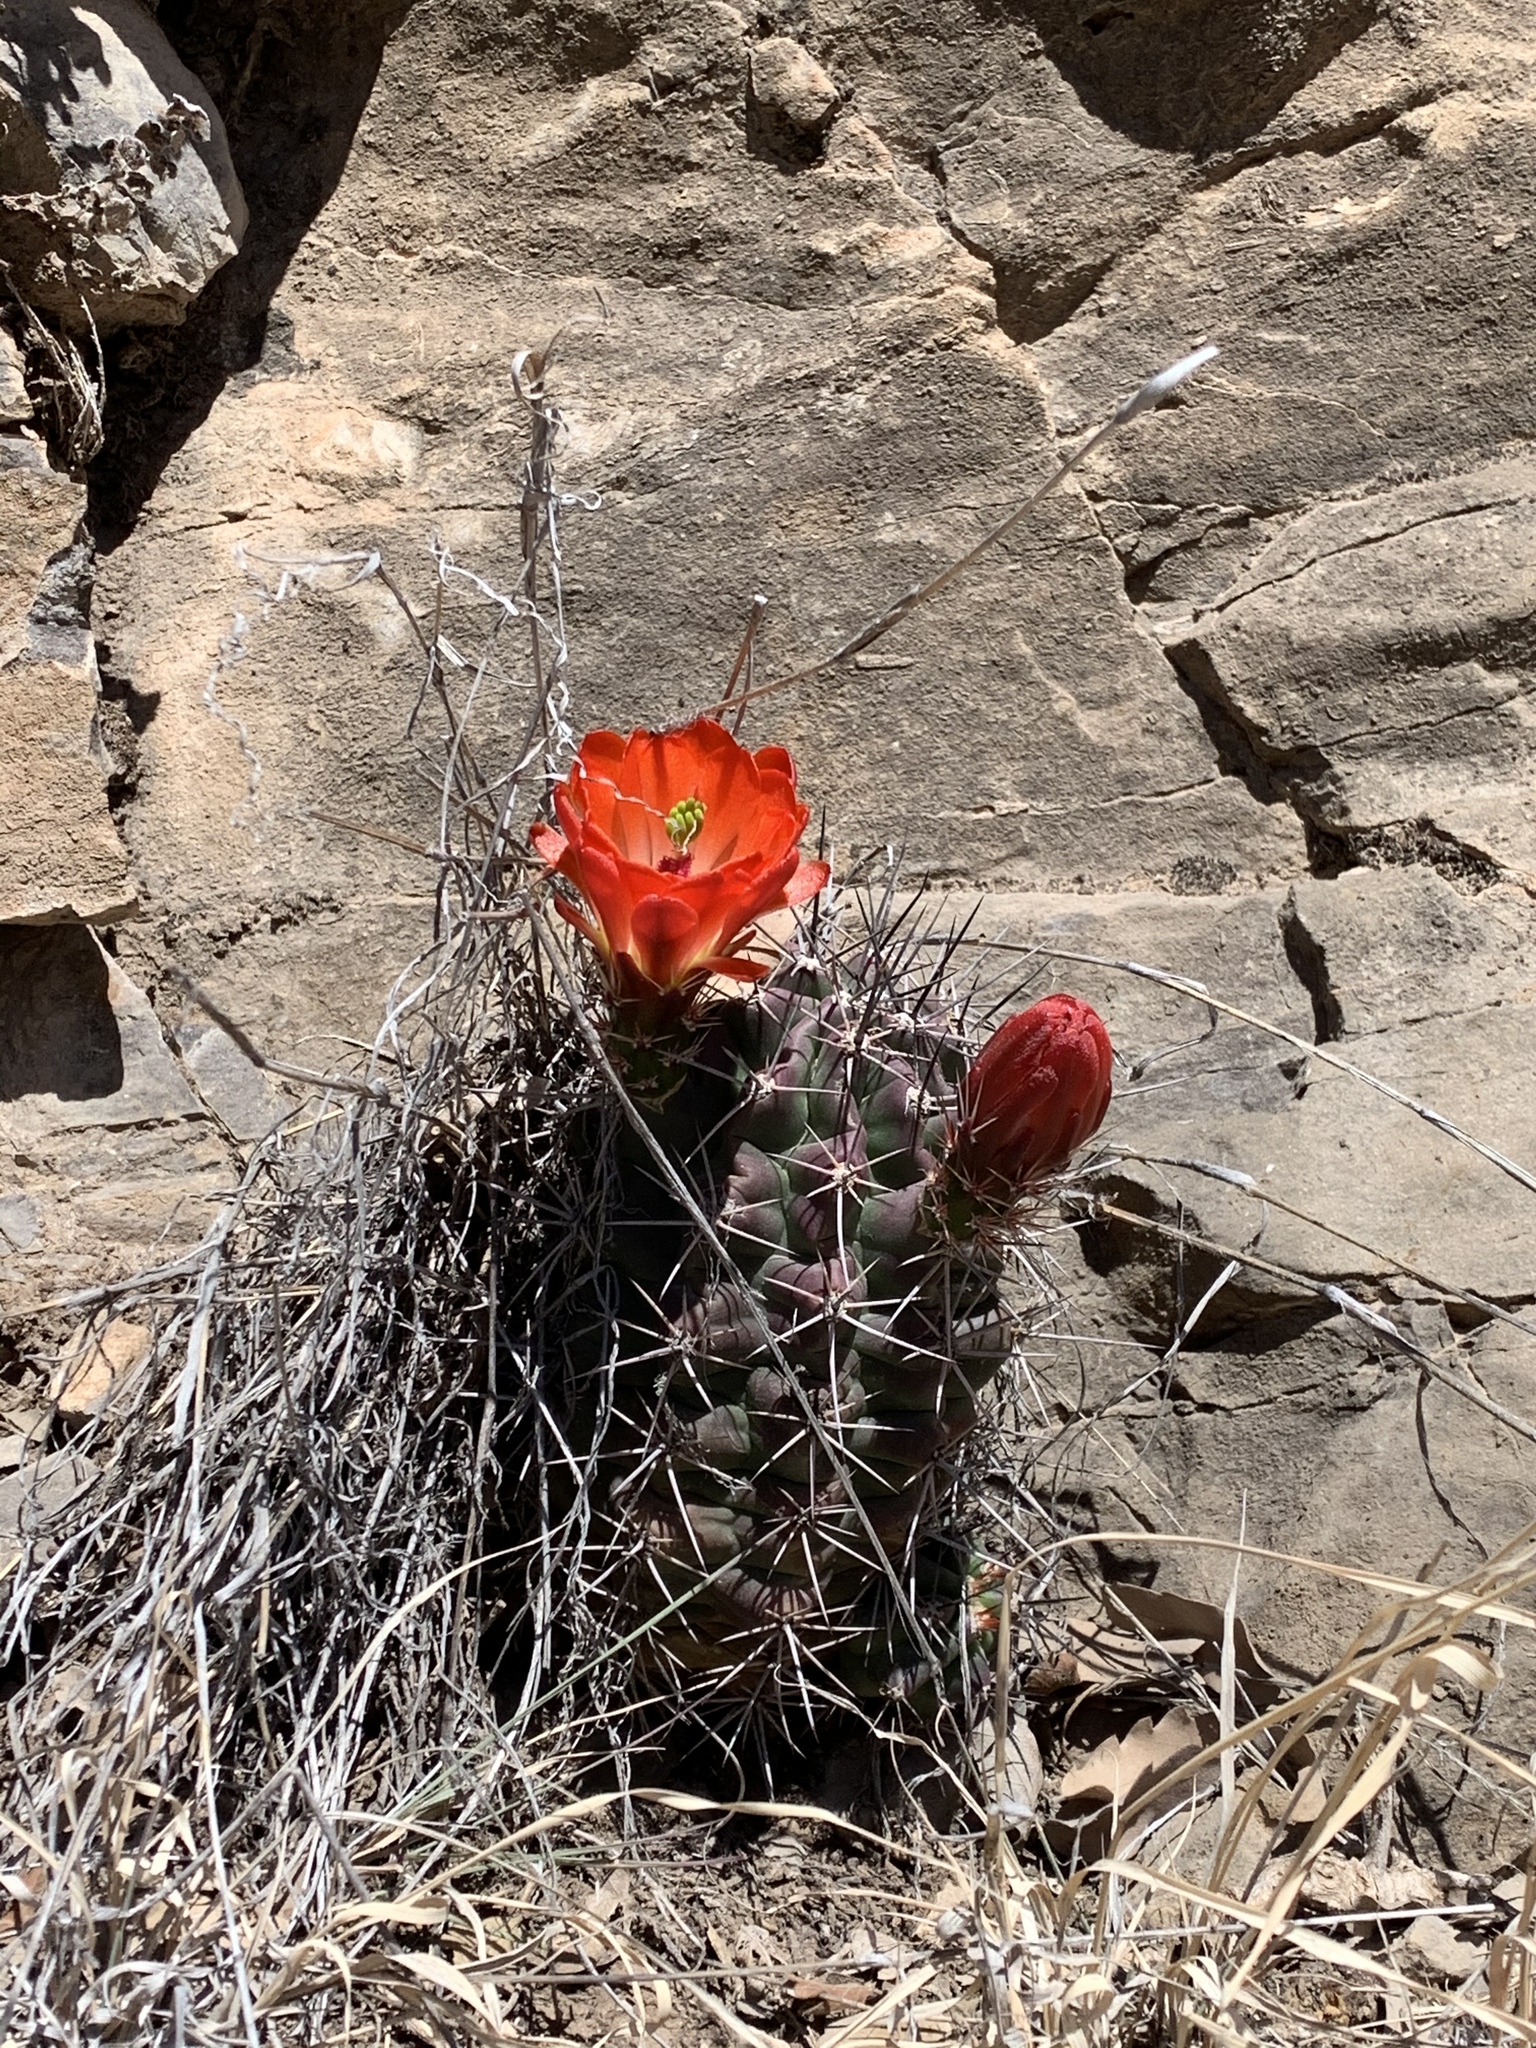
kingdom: Plantae
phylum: Tracheophyta
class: Magnoliopsida
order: Caryophyllales
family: Cactaceae
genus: Echinocereus
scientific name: Echinocereus coccineus
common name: Scarlet hedgehog cactus
